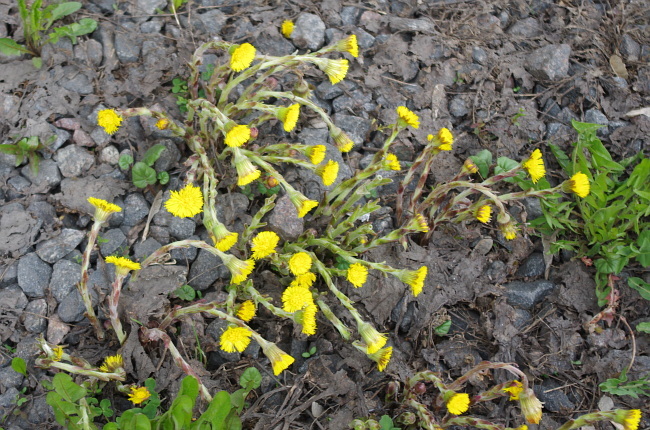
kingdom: Plantae
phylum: Tracheophyta
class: Magnoliopsida
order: Asterales
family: Asteraceae
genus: Tussilago
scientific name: Tussilago farfara
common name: Coltsfoot
